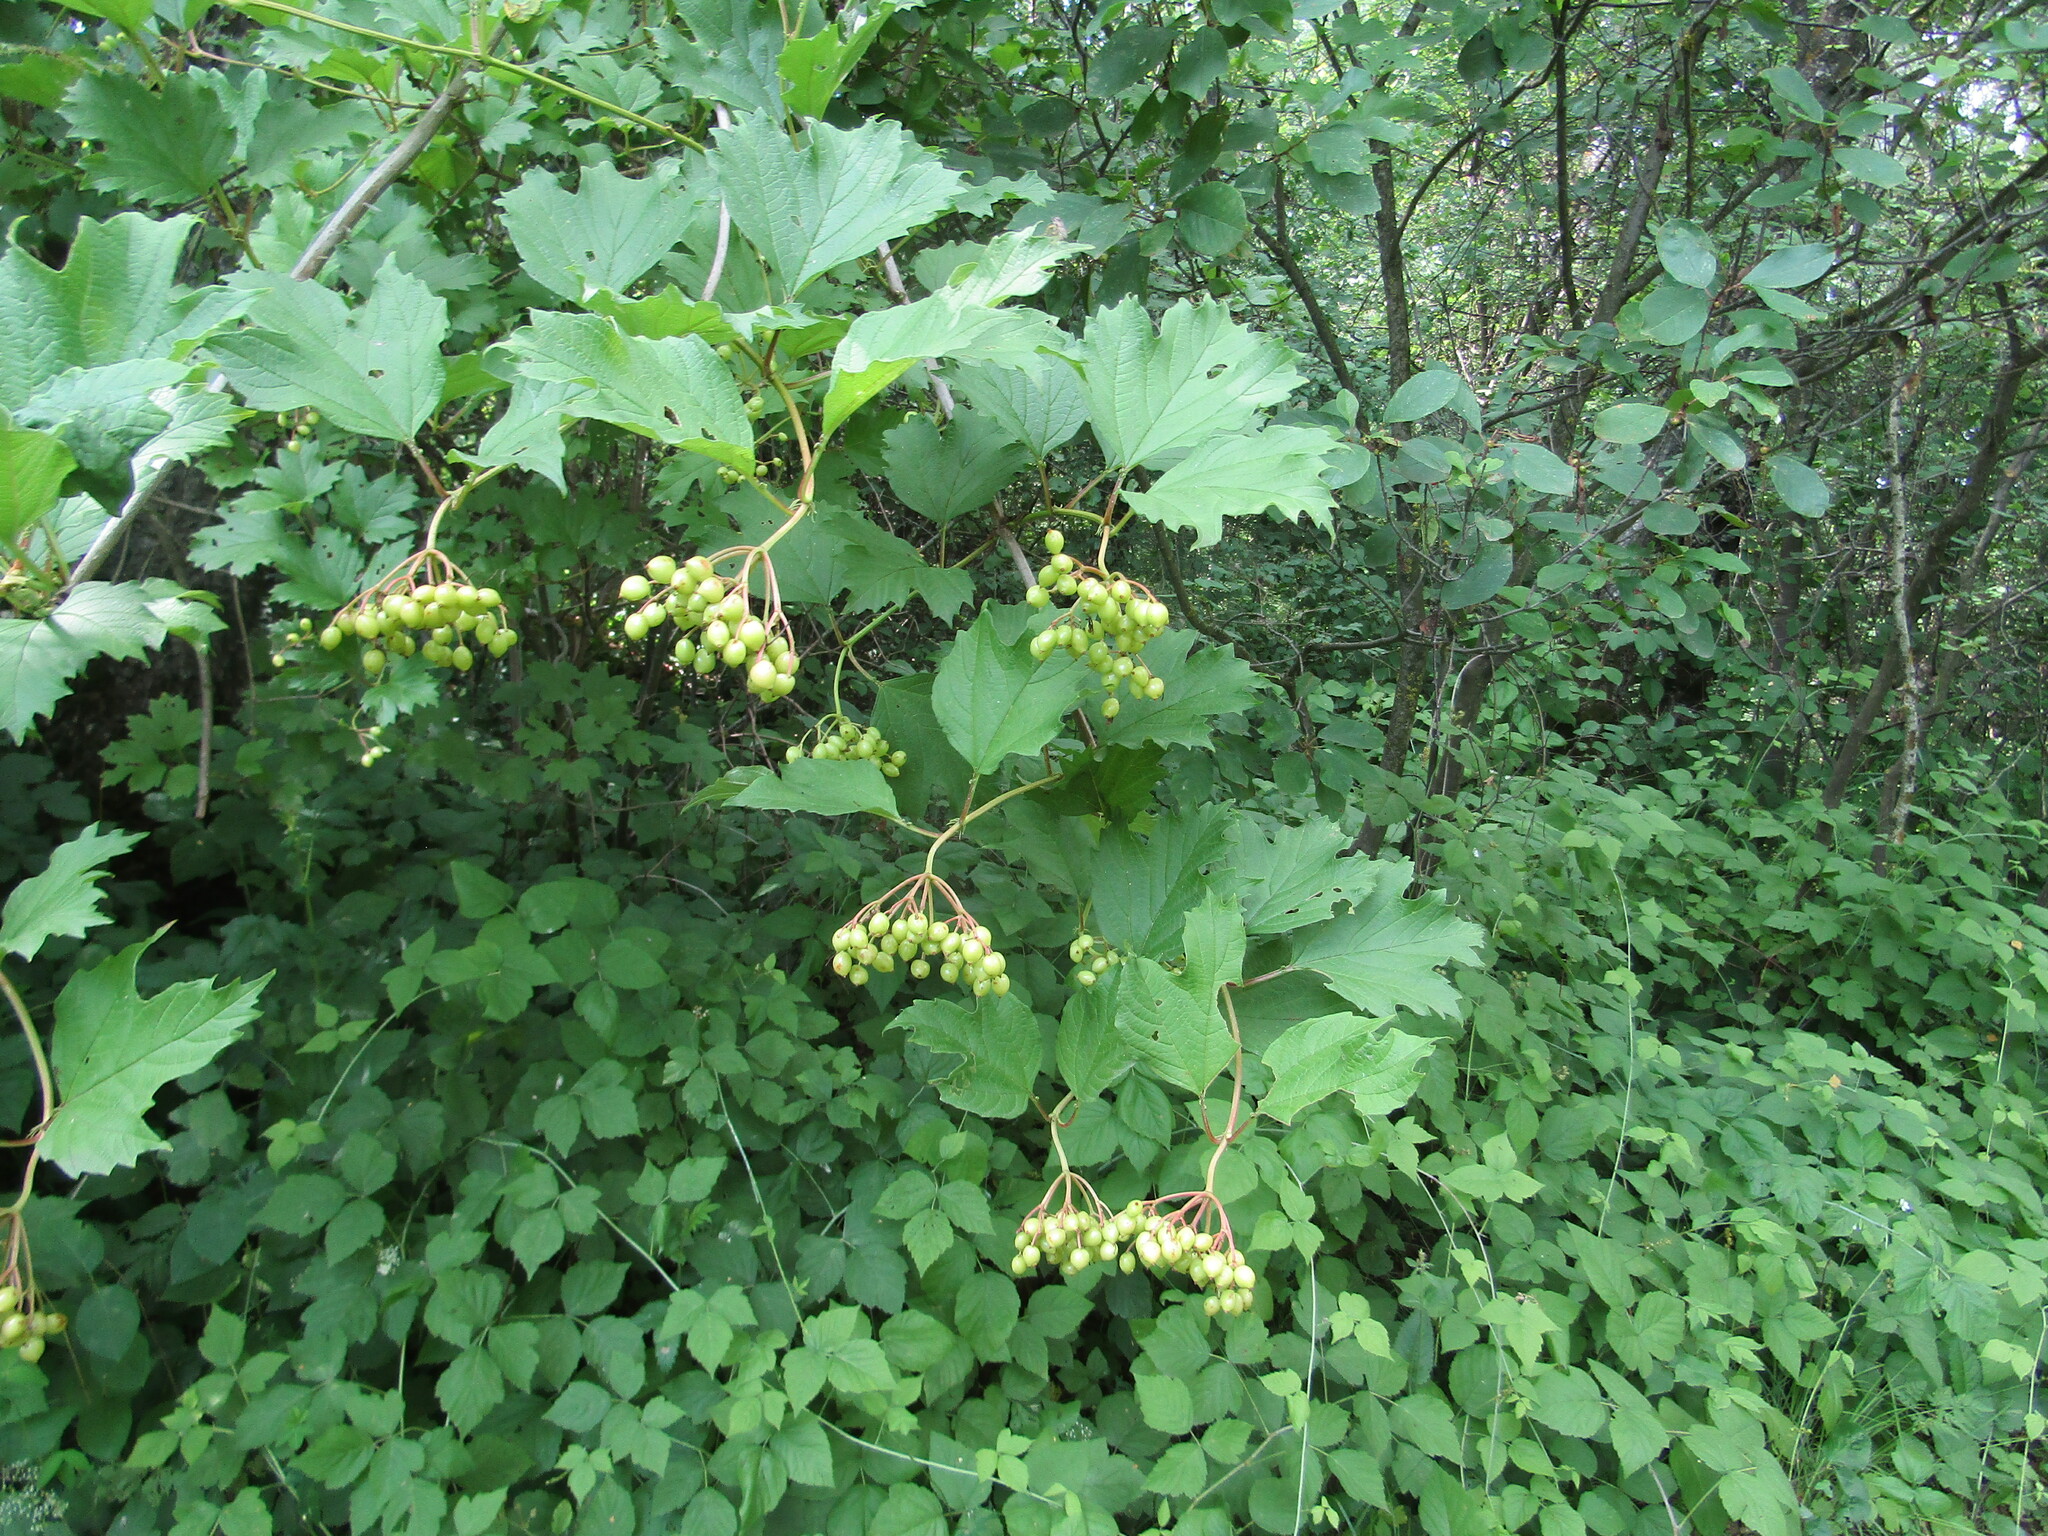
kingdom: Plantae
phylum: Tracheophyta
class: Magnoliopsida
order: Dipsacales
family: Viburnaceae
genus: Viburnum
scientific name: Viburnum opulus
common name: Guelder-rose
